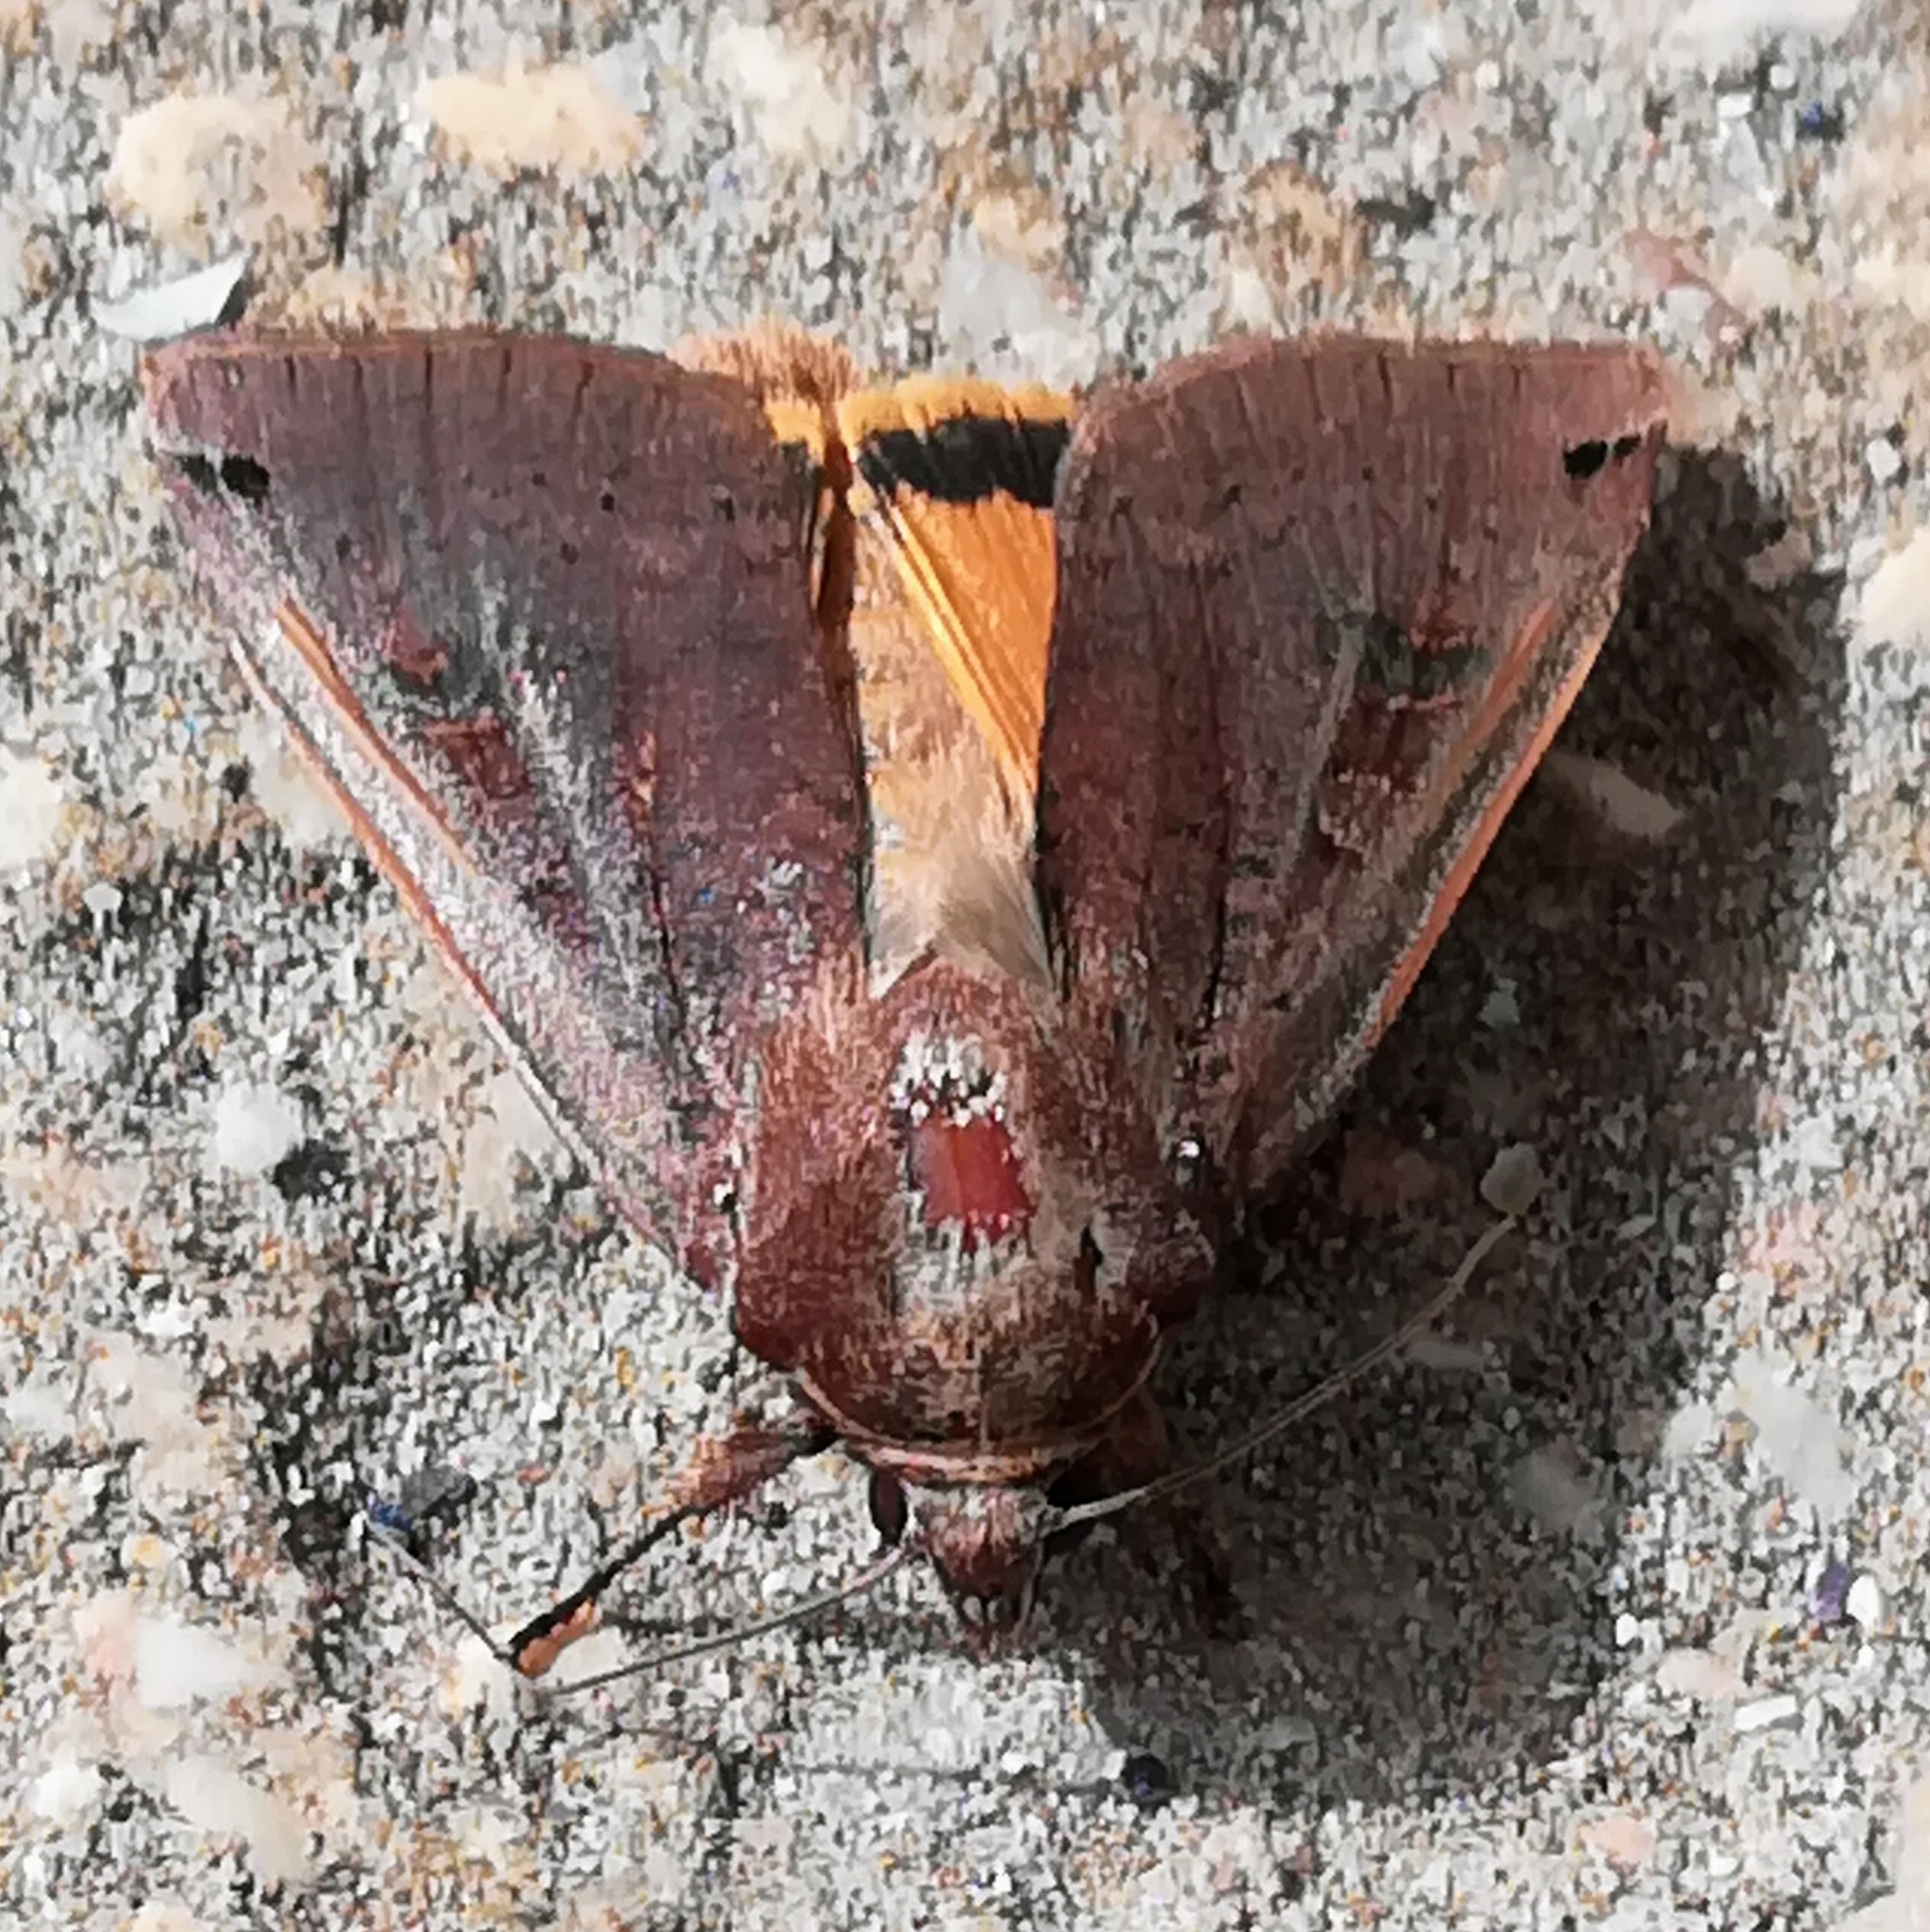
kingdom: Animalia
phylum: Arthropoda
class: Insecta
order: Lepidoptera
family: Noctuidae
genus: Noctua
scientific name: Noctua pronuba
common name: Large yellow underwing
